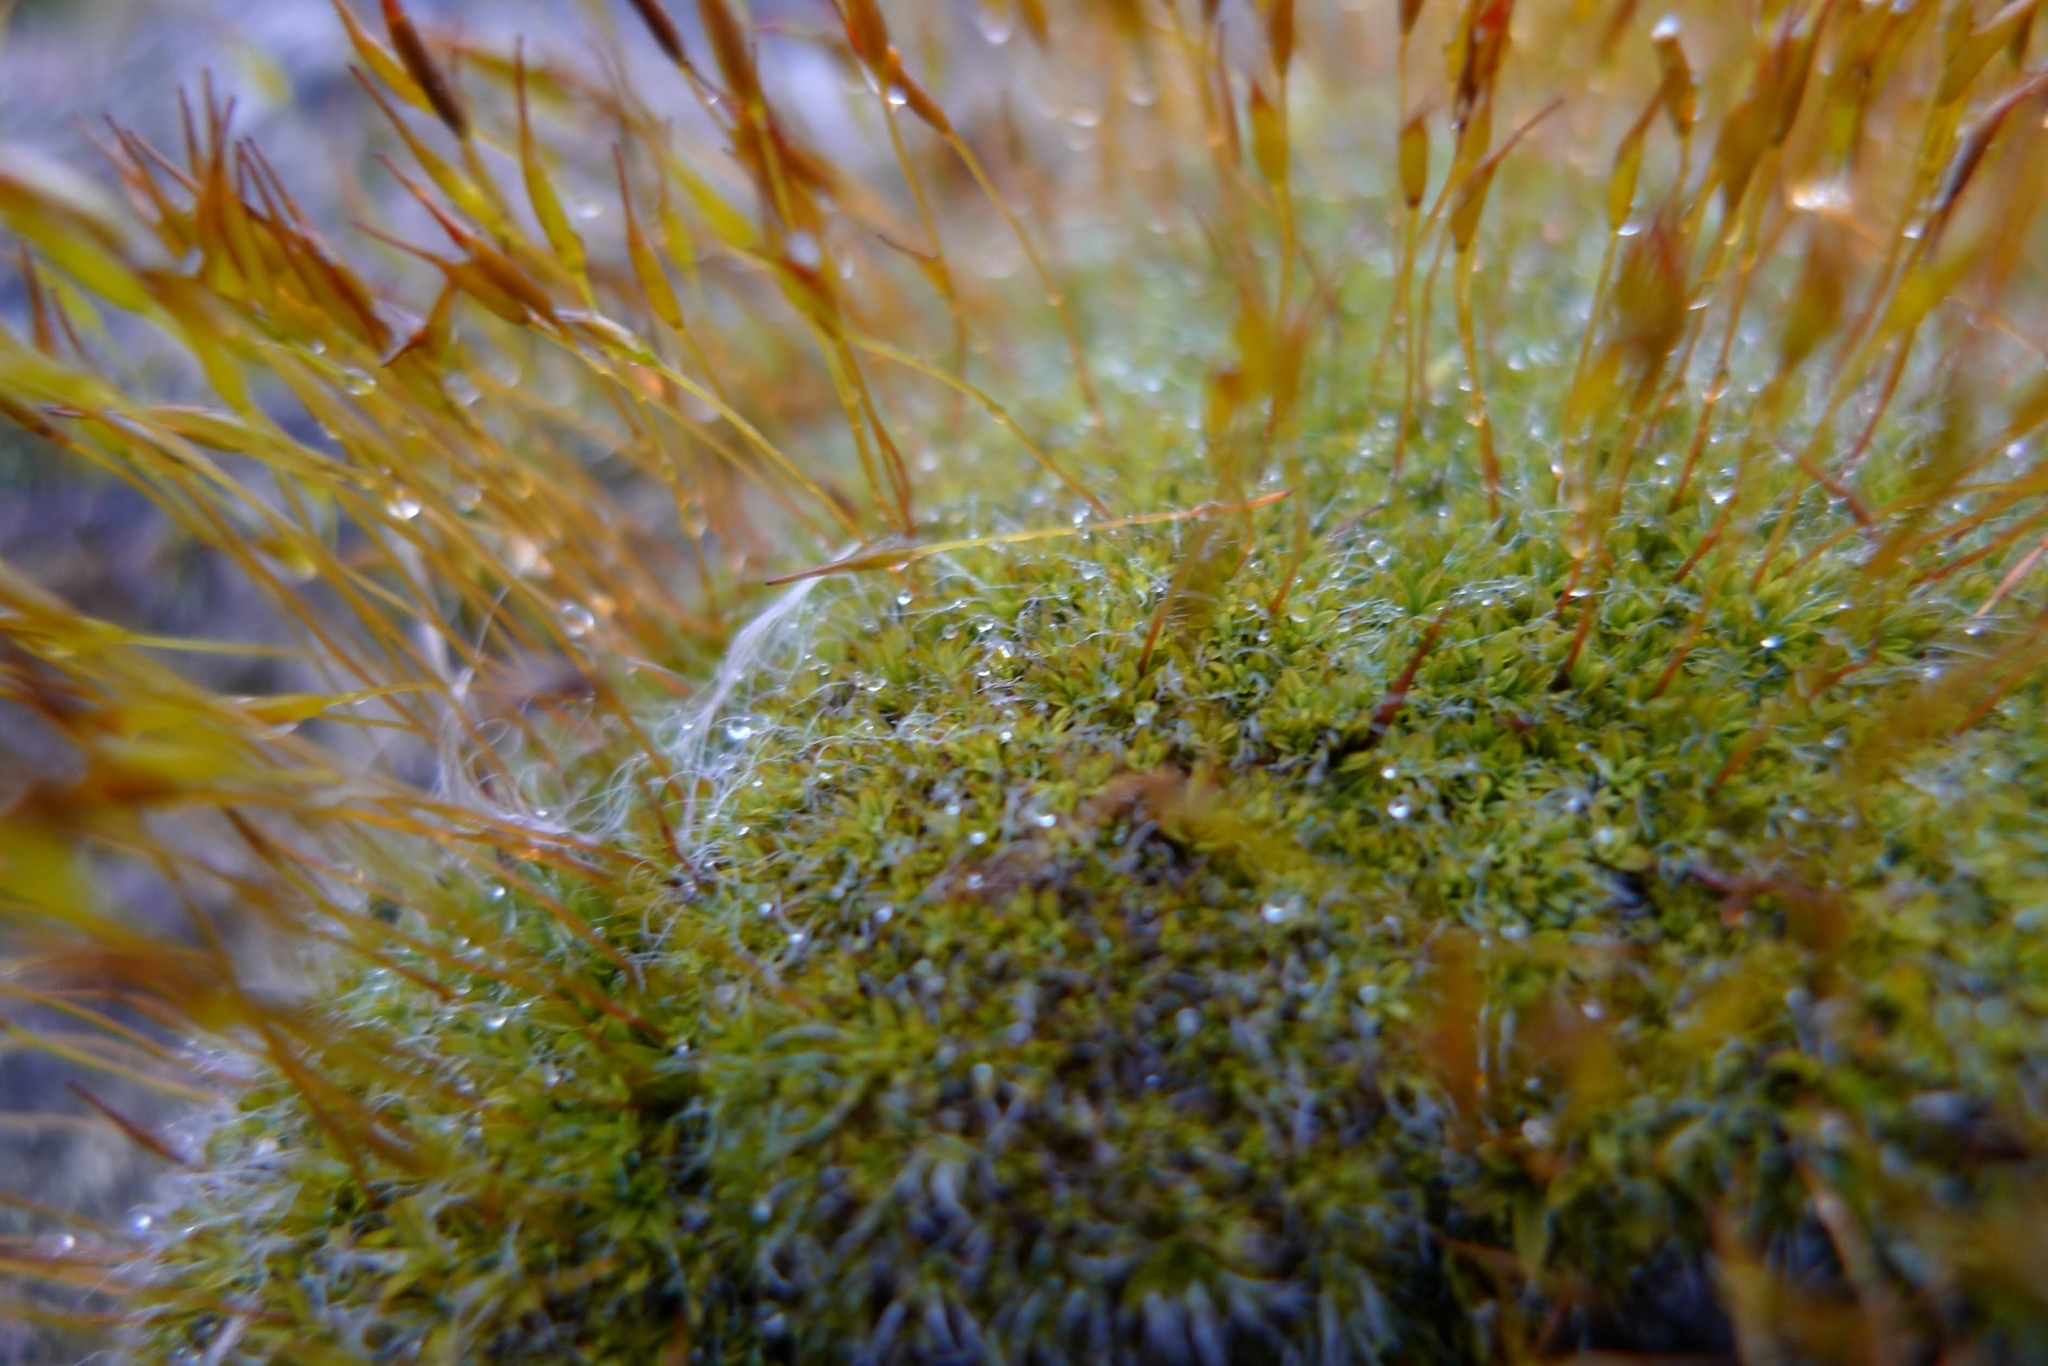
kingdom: Plantae
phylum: Bryophyta
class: Bryopsida
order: Pottiales
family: Pottiaceae
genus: Tortula
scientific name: Tortula muralis
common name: Wall screw-moss
